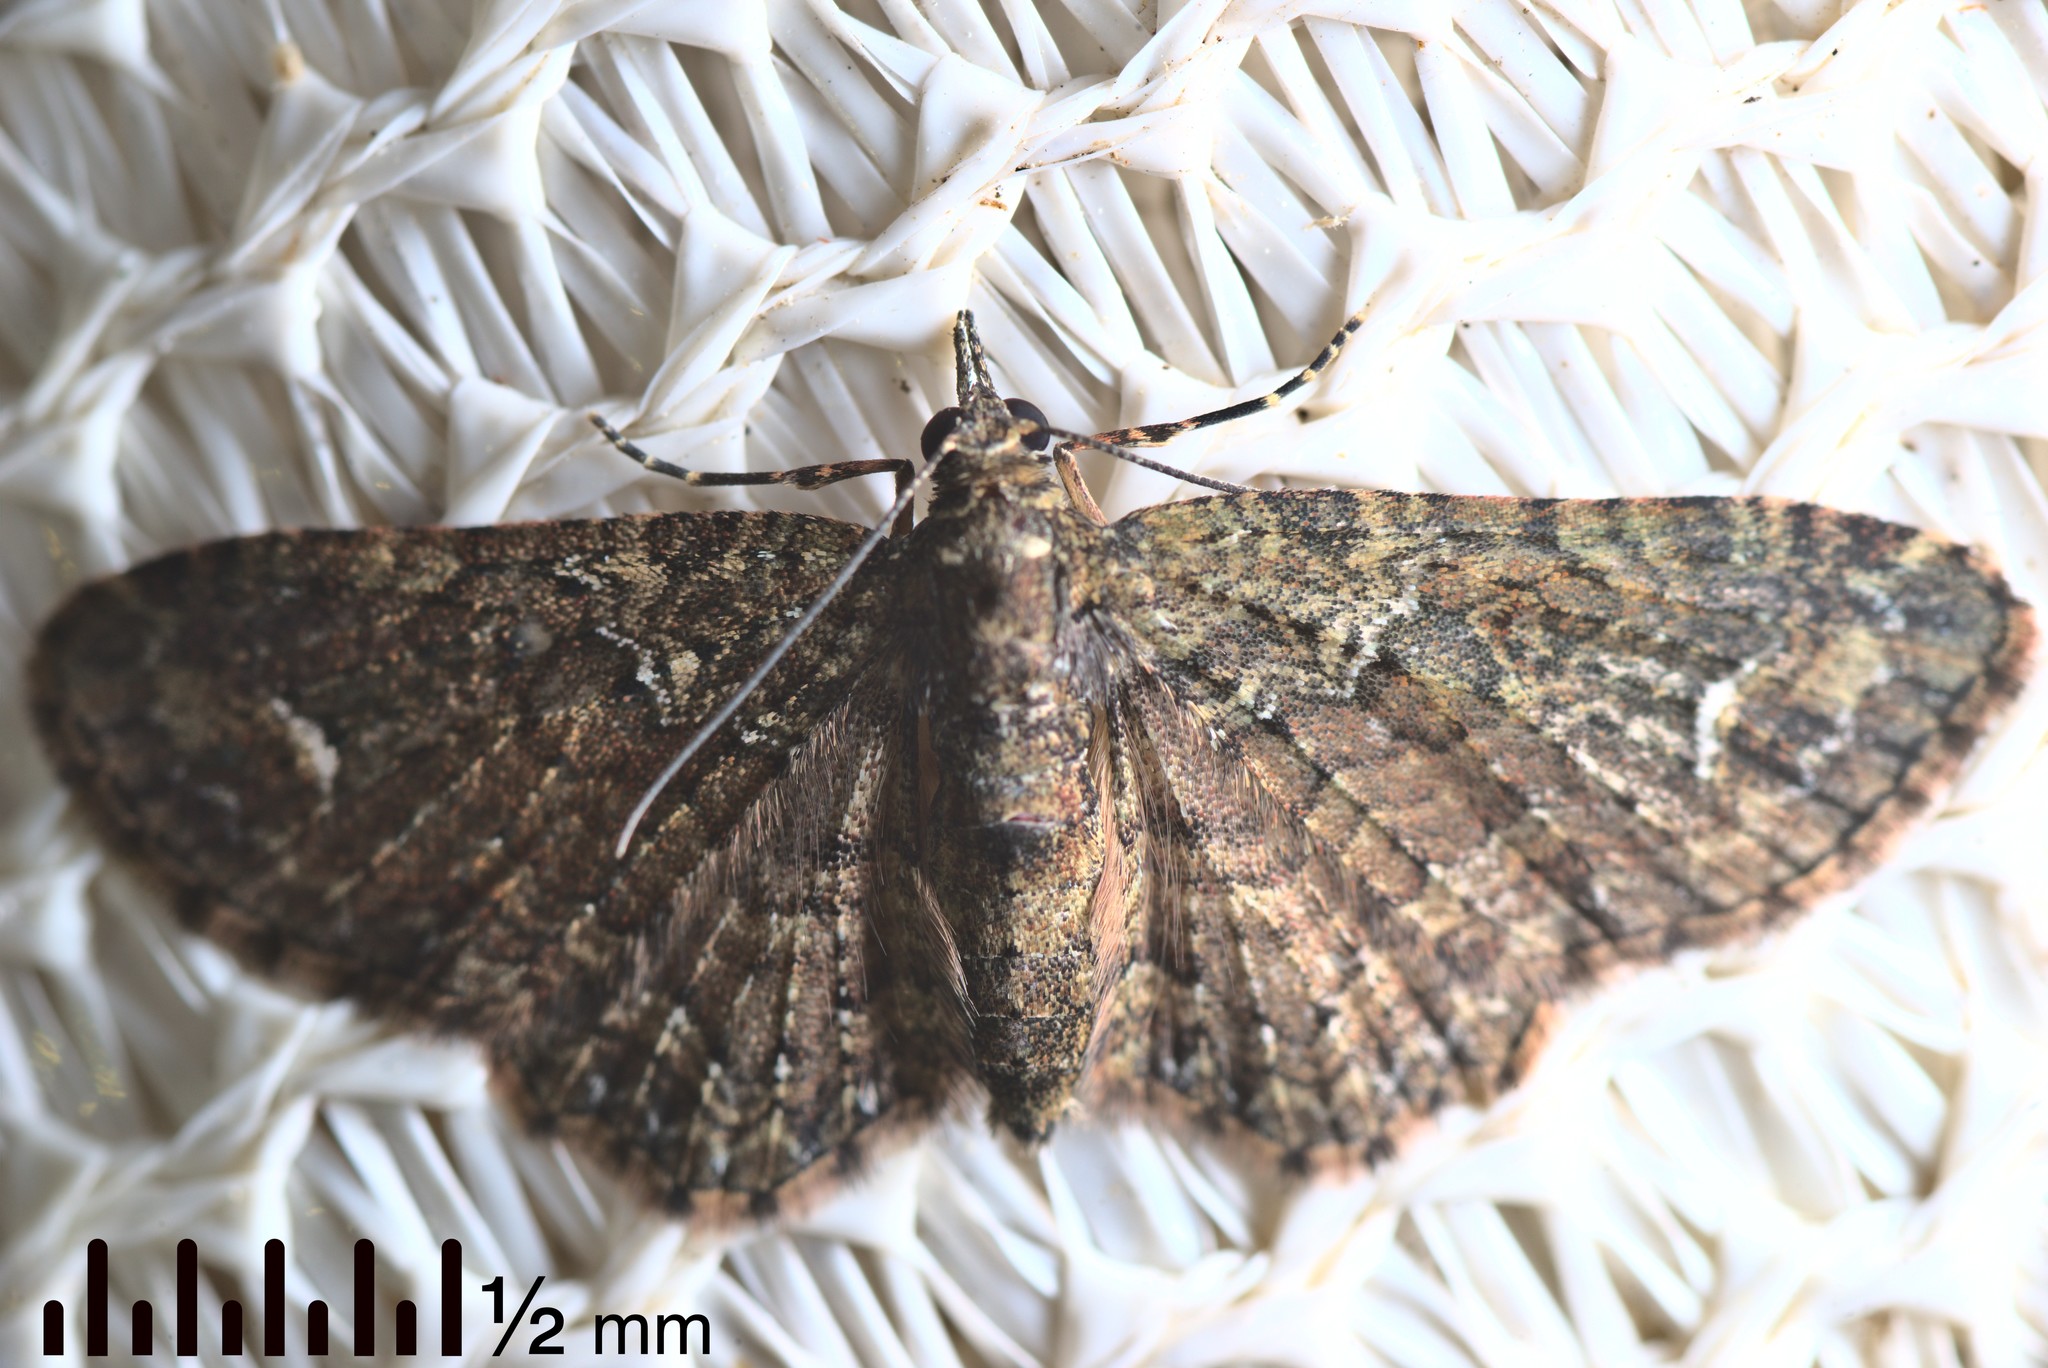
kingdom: Animalia
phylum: Arthropoda
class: Insecta
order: Lepidoptera
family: Geometridae
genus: Pasiphilodes
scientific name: Pasiphilodes testulata
